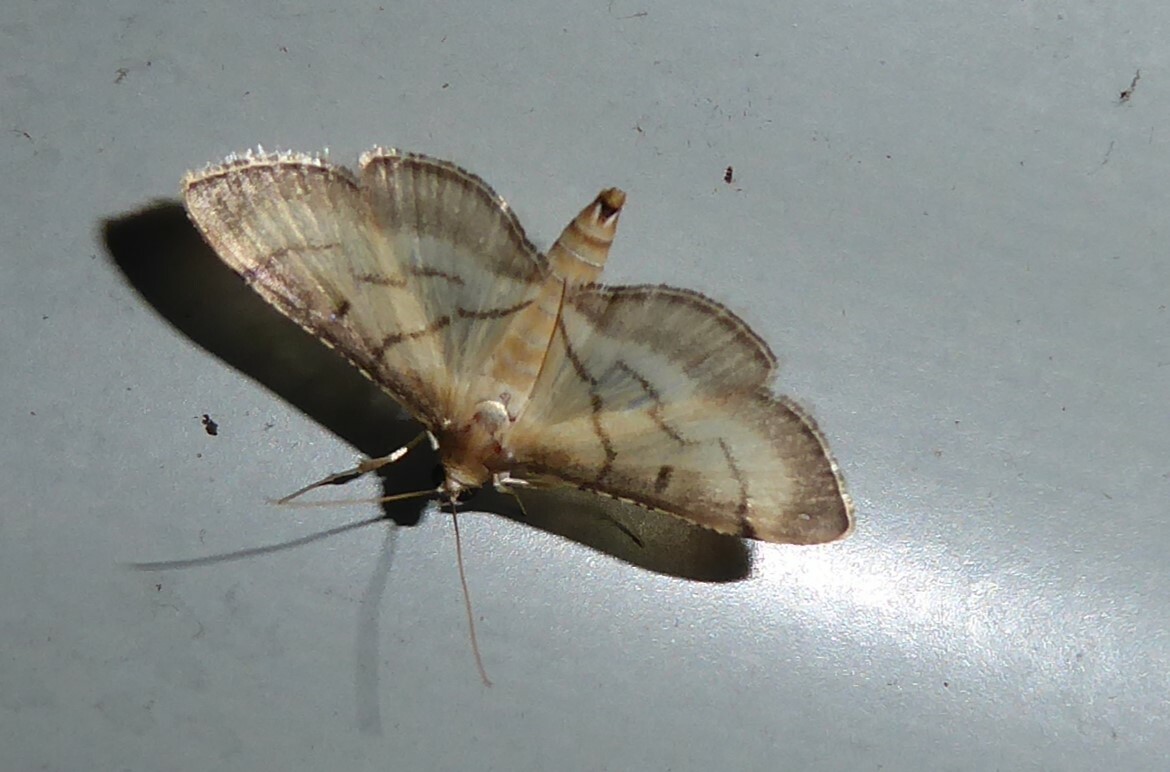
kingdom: Animalia
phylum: Arthropoda
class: Insecta
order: Lepidoptera
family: Crambidae
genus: Cnaphalocrocis
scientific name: Cnaphalocrocis poeyalis
